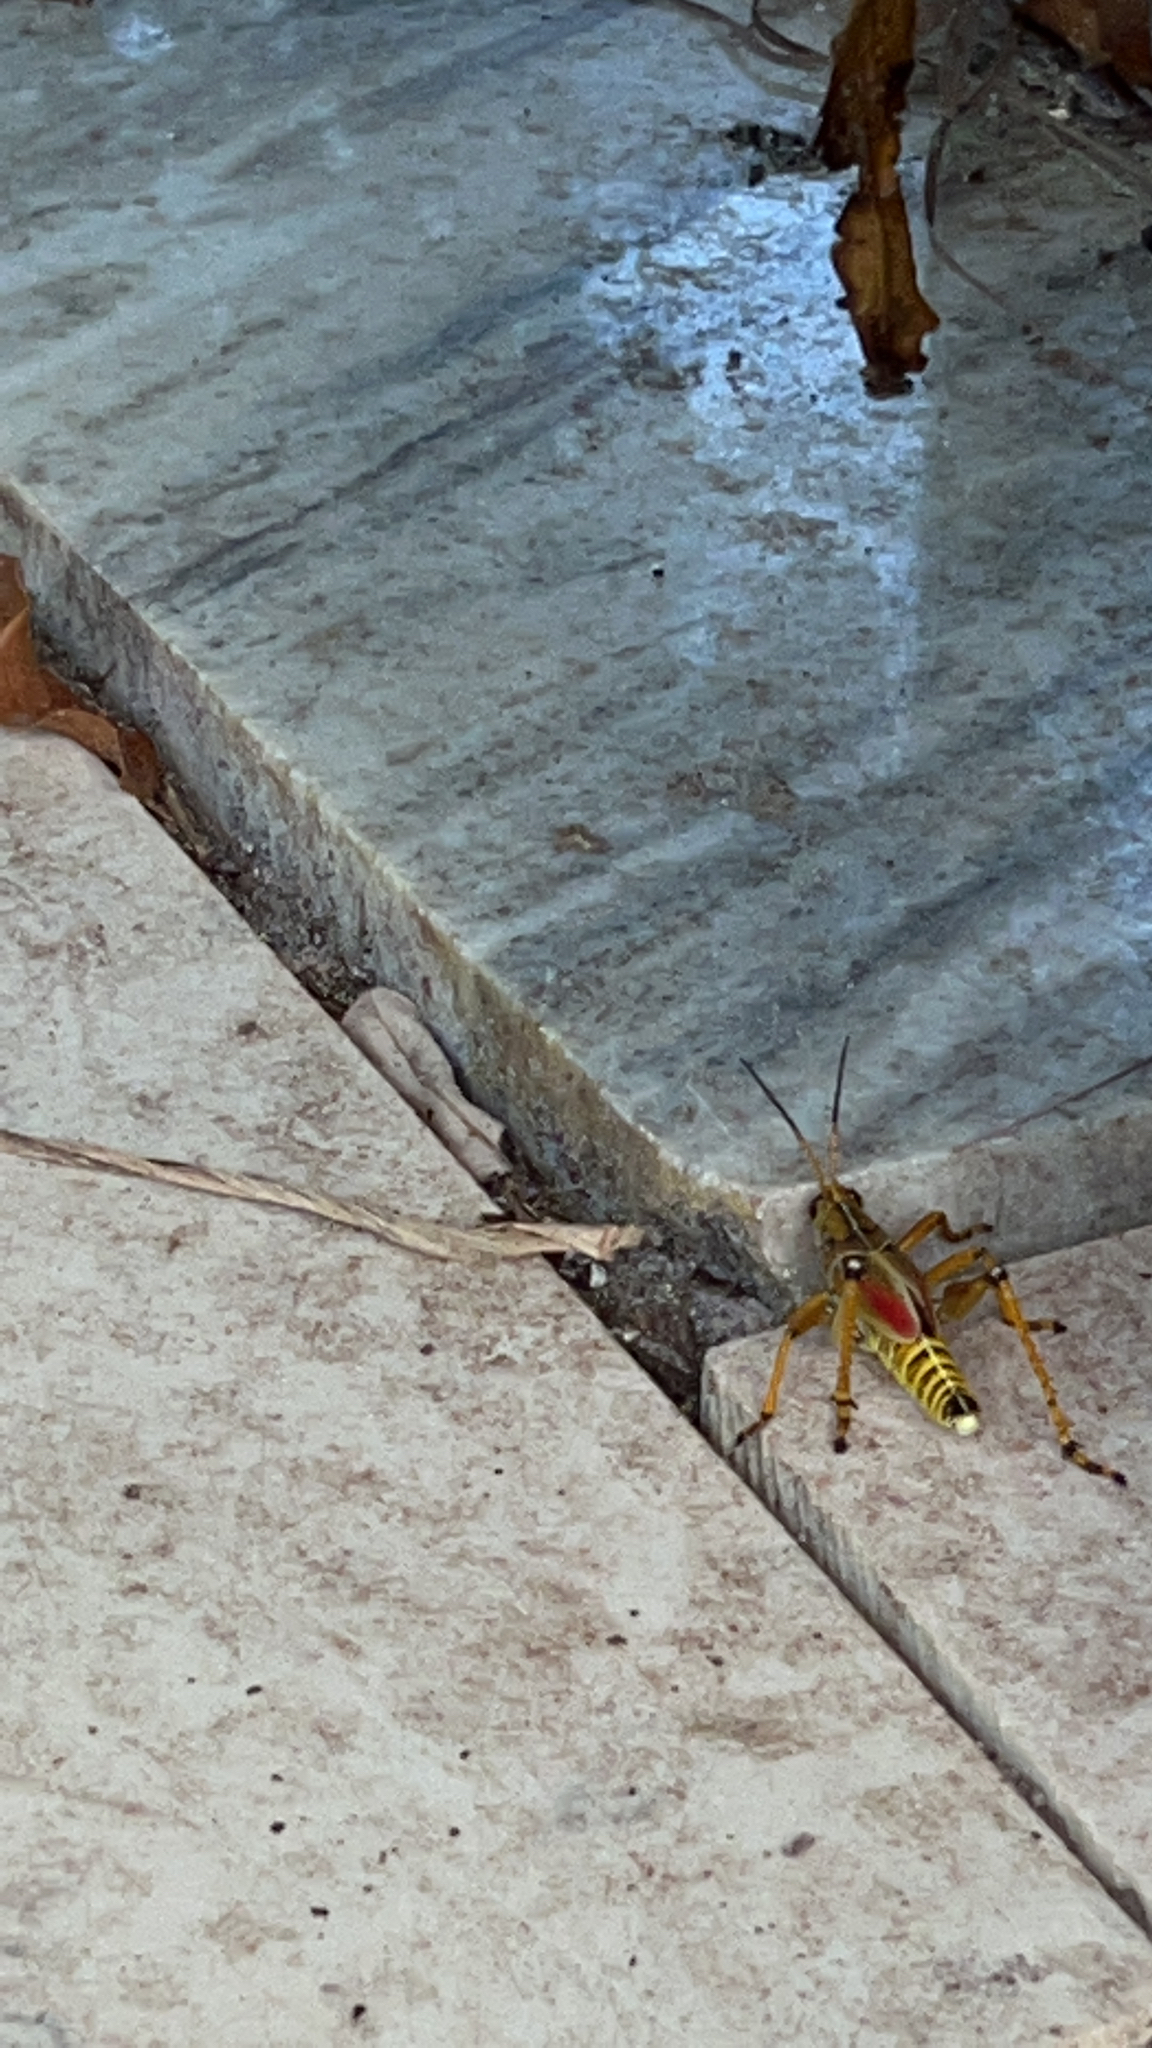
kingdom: Animalia
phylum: Arthropoda
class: Insecta
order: Orthoptera
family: Romaleidae
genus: Romalea
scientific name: Romalea microptera
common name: Eastern lubber grasshopper
